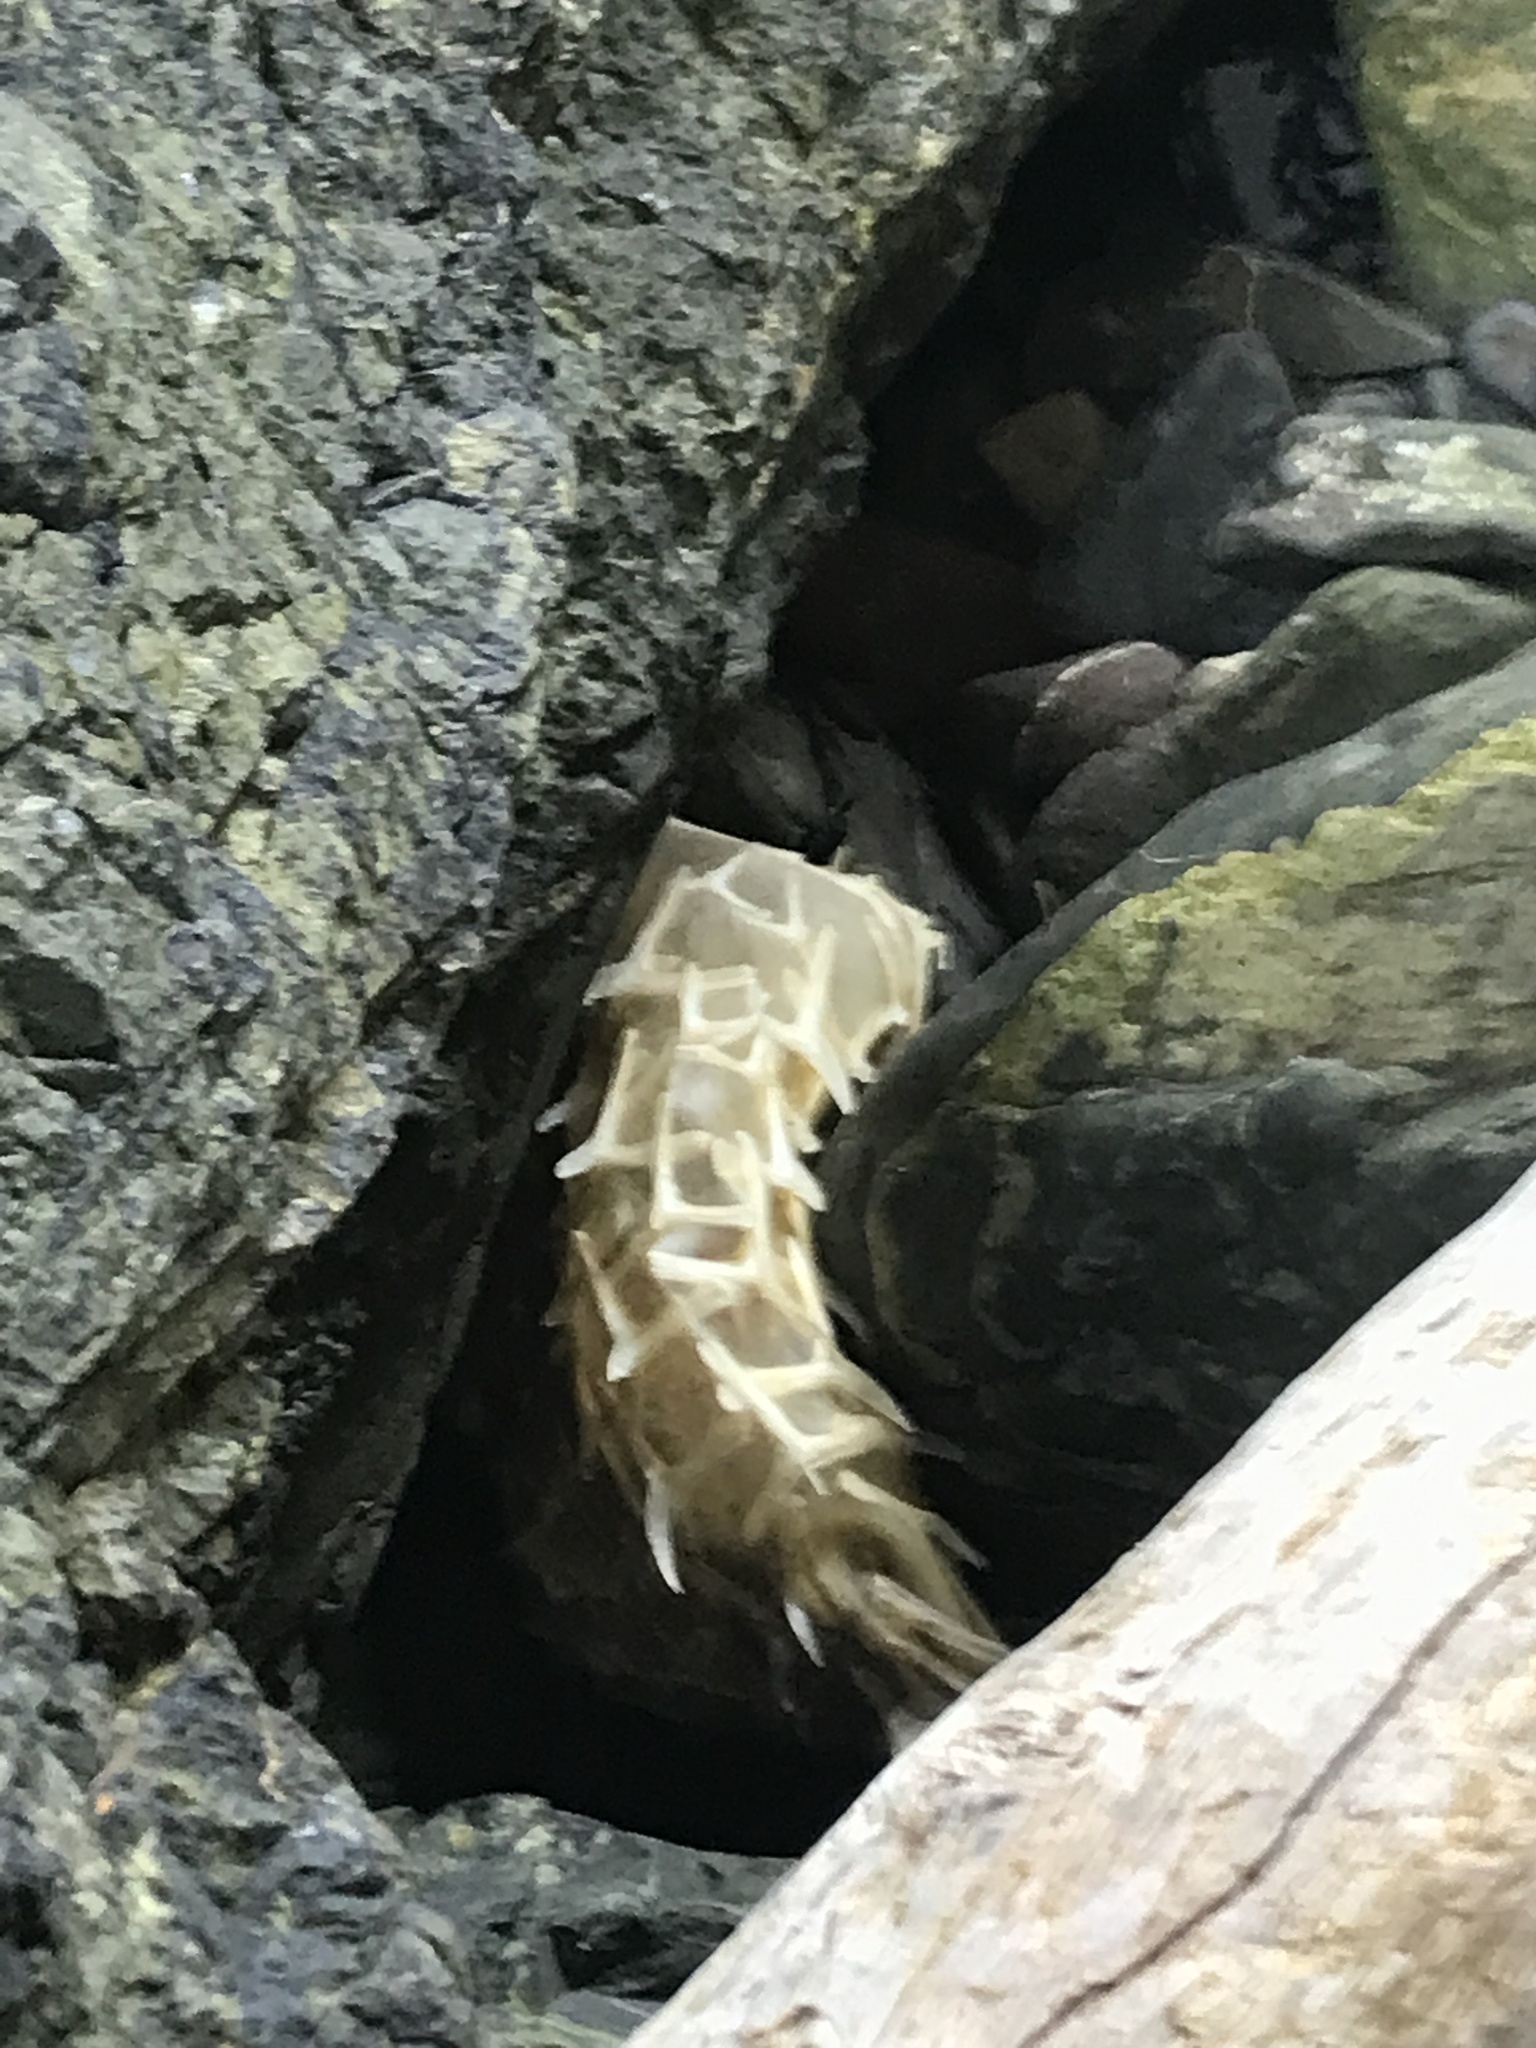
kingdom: Animalia
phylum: Chordata
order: Tetraodontiformes
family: Diodontidae
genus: Allomycterus
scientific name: Allomycterus pilatus
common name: No common name
